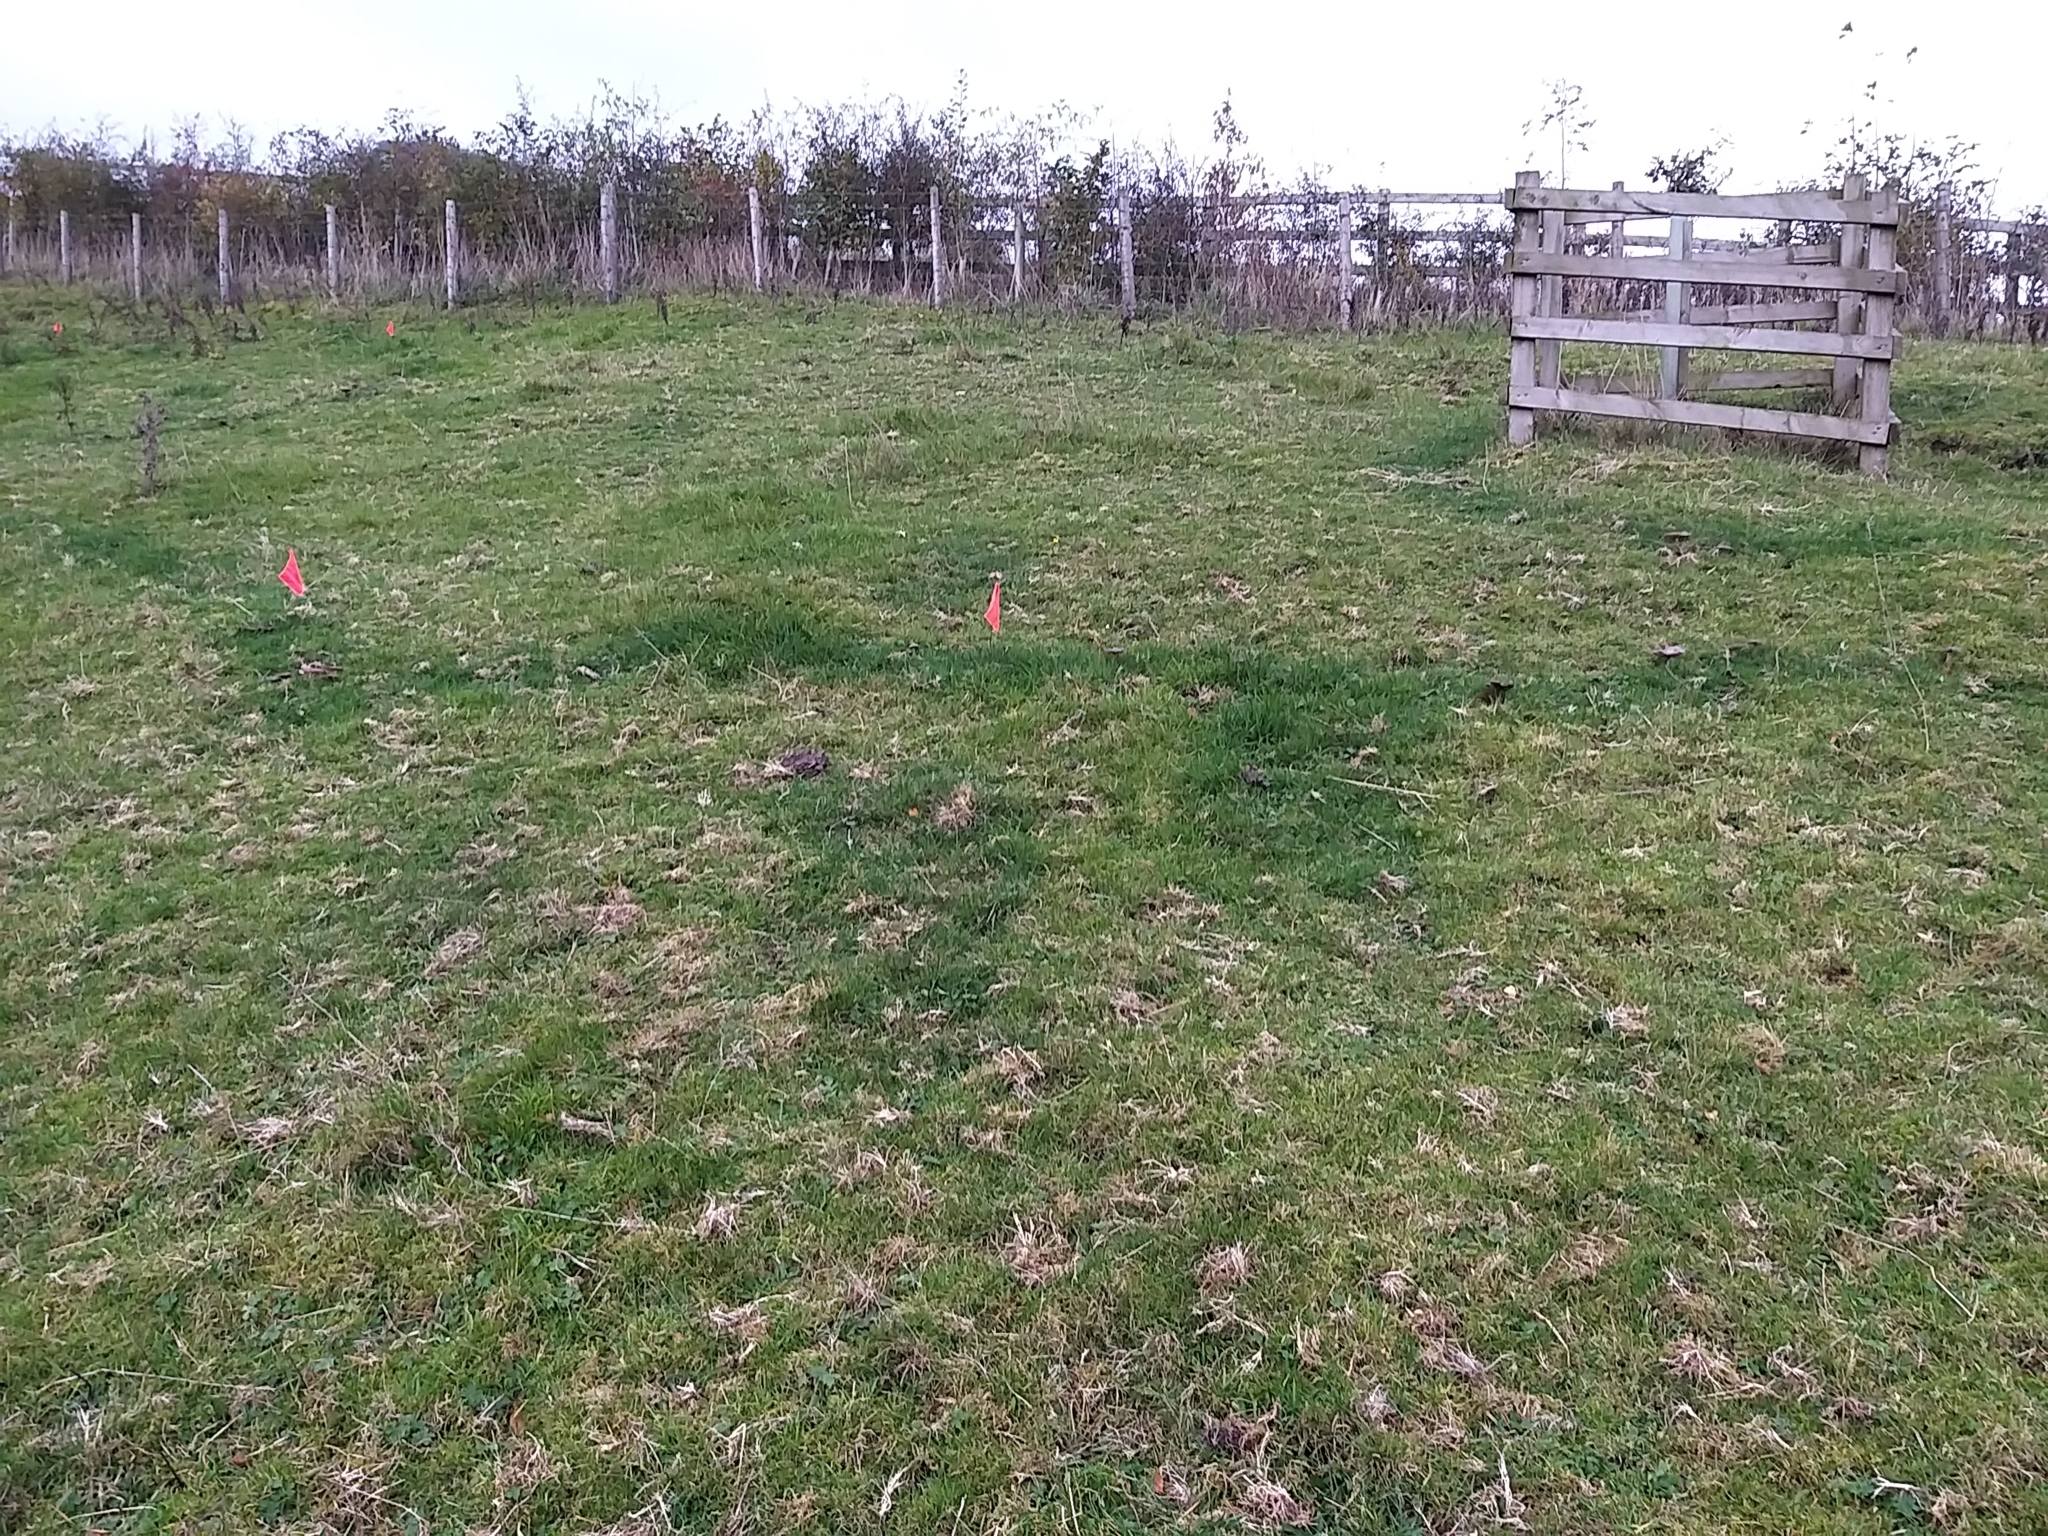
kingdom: Fungi
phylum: Basidiomycota
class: Agaricomycetes
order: Agaricales
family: Entolomataceae
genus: Entoloma
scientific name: Entoloma porphyrophaeum
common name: Lilac pinkgill
